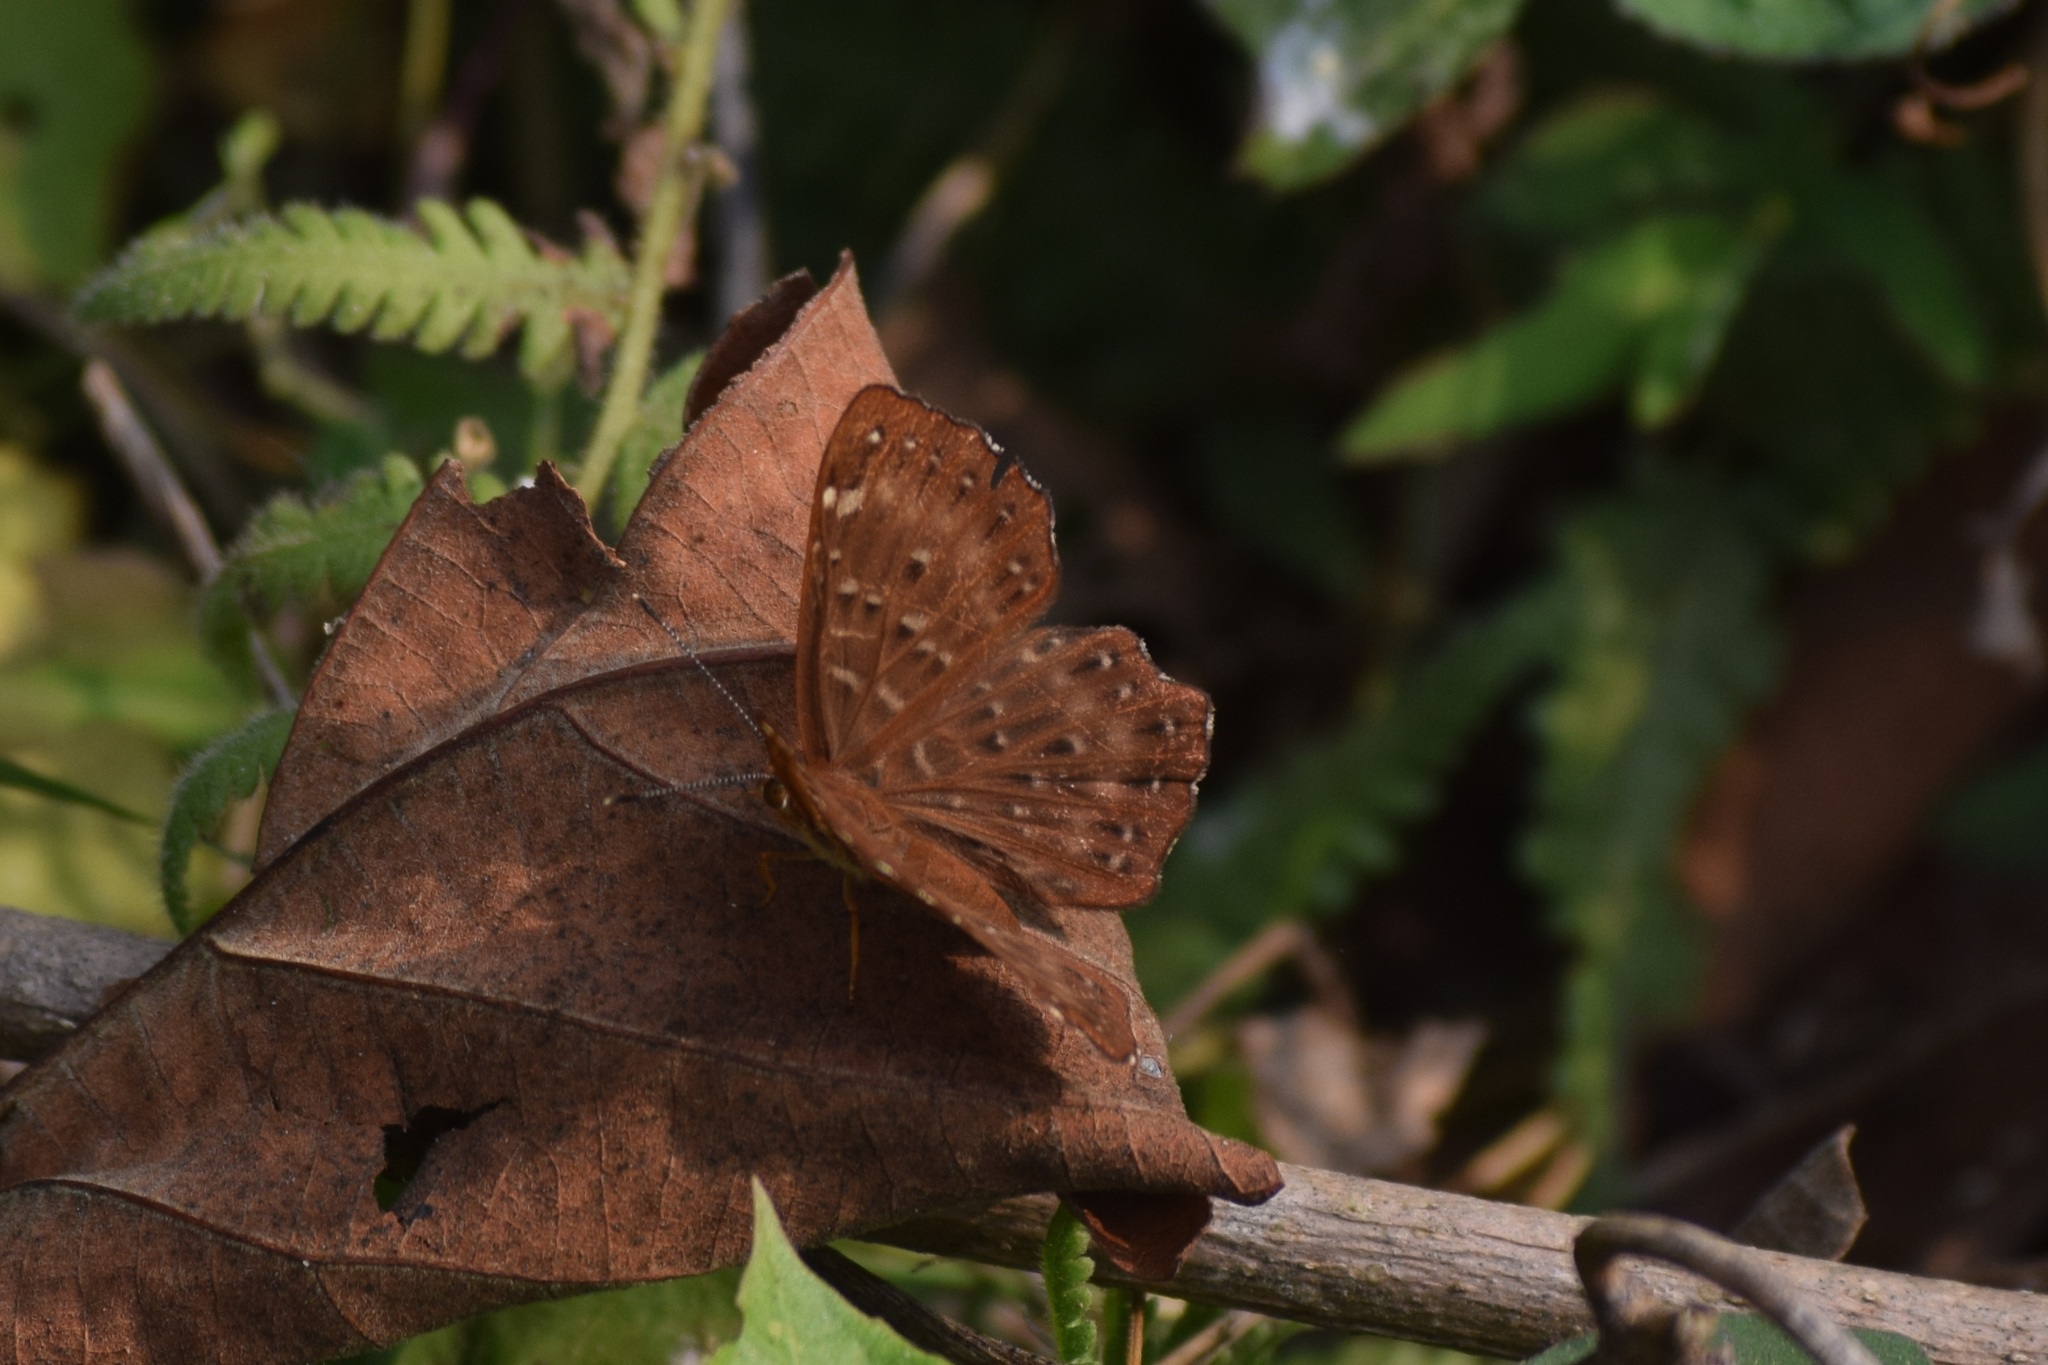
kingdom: Animalia
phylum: Arthropoda
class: Insecta
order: Lepidoptera
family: Riodinidae
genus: Zemeros
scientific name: Zemeros flegyas
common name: Punchinello
